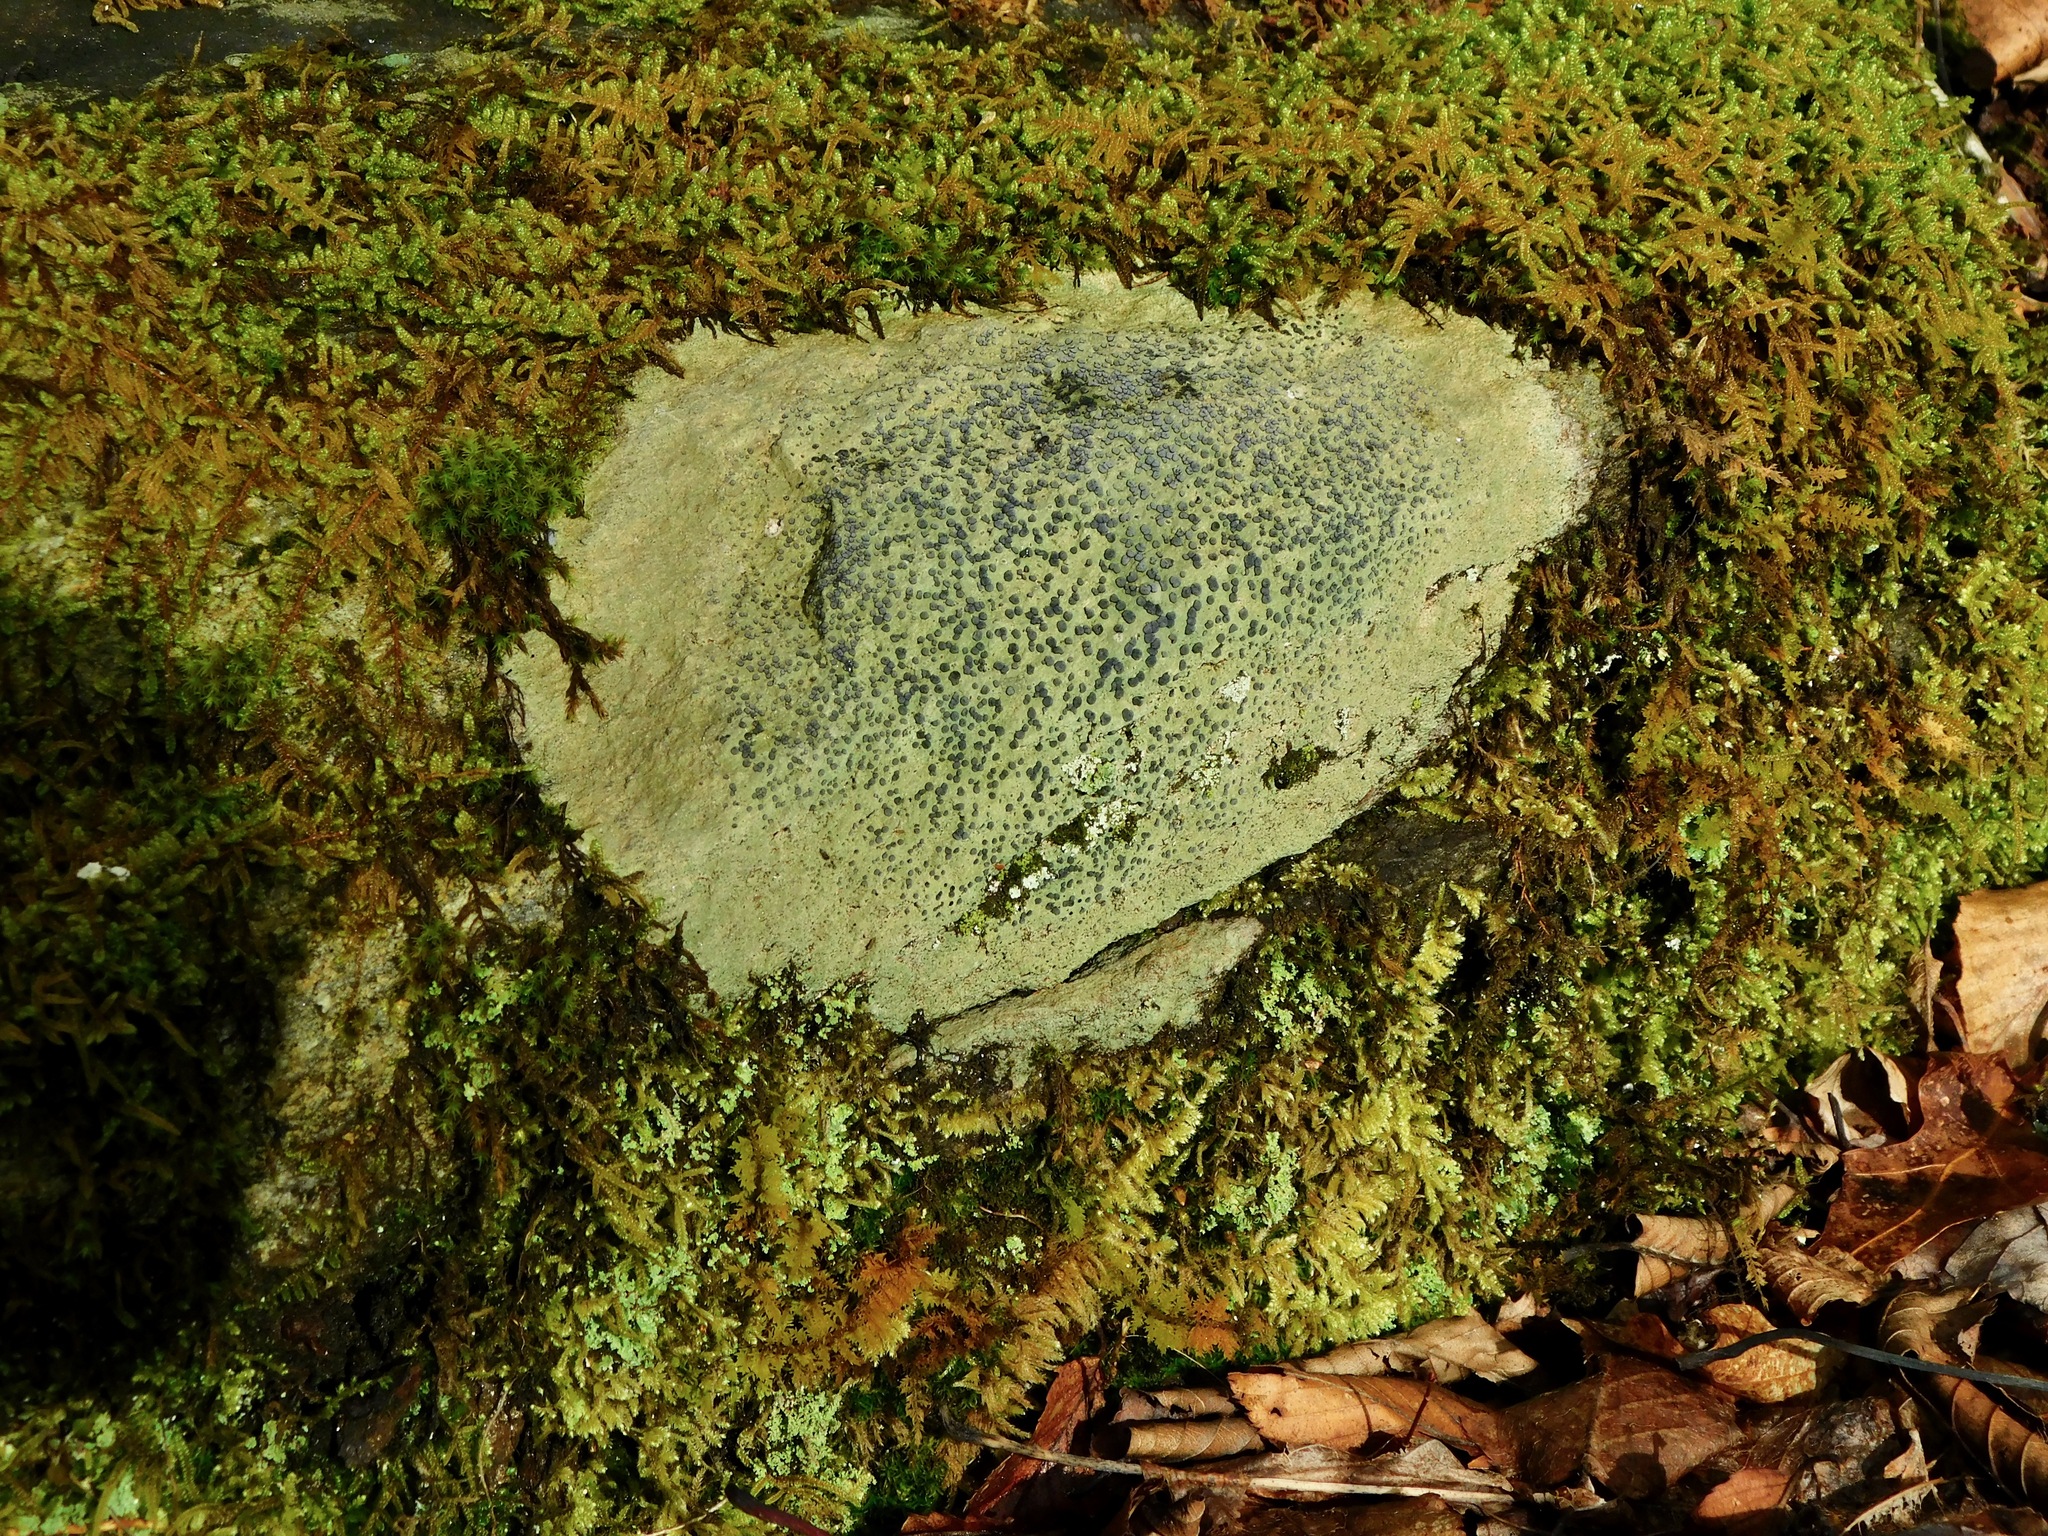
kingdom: Fungi
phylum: Ascomycota
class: Lecanoromycetes
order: Lecideales
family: Lecideaceae
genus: Porpidia
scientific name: Porpidia albocaerulescens
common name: Smokey-eyed boulder lichen
